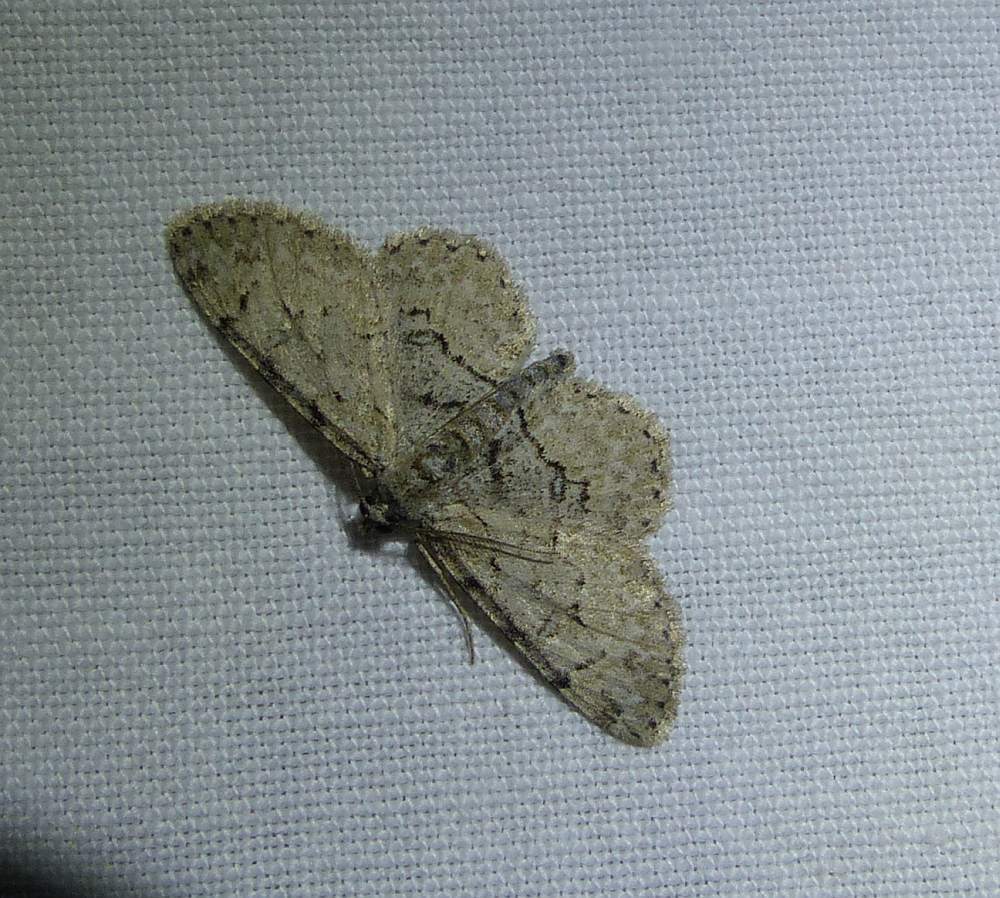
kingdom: Animalia
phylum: Arthropoda
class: Insecta
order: Lepidoptera
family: Geometridae
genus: Iridopsis
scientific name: Iridopsis ephyraria
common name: Pale-winged gray
